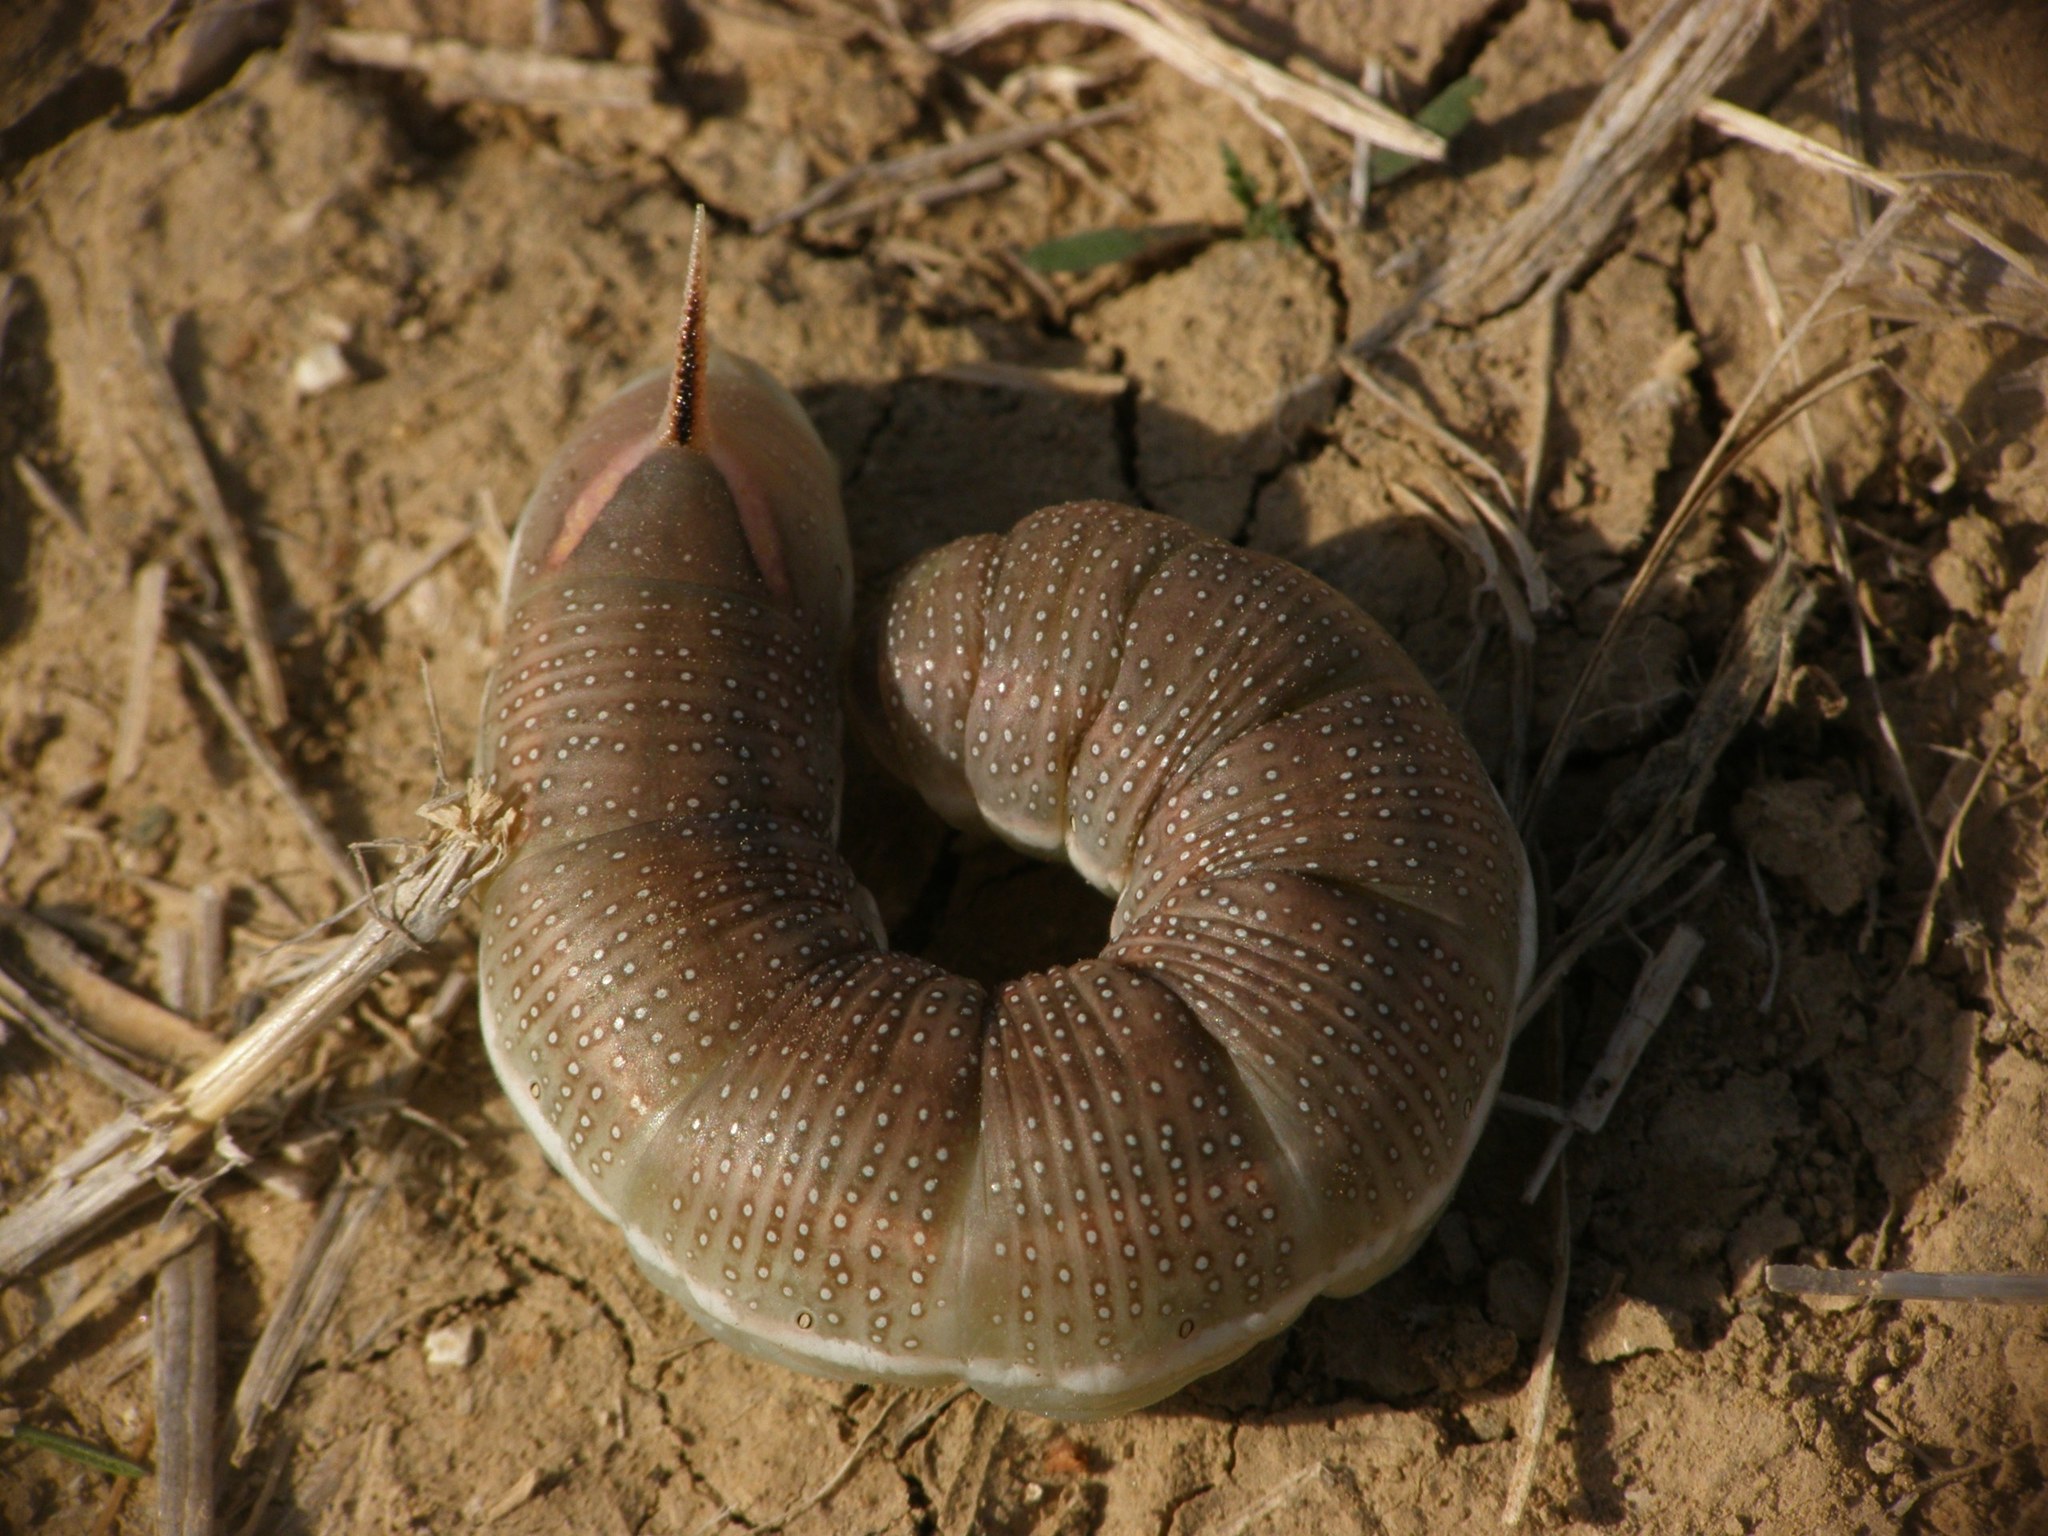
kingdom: Animalia
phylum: Arthropoda
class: Insecta
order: Lepidoptera
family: Sphingidae
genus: Hyles
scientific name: Hyles hippophaes
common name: Seathorn hawk-moth
